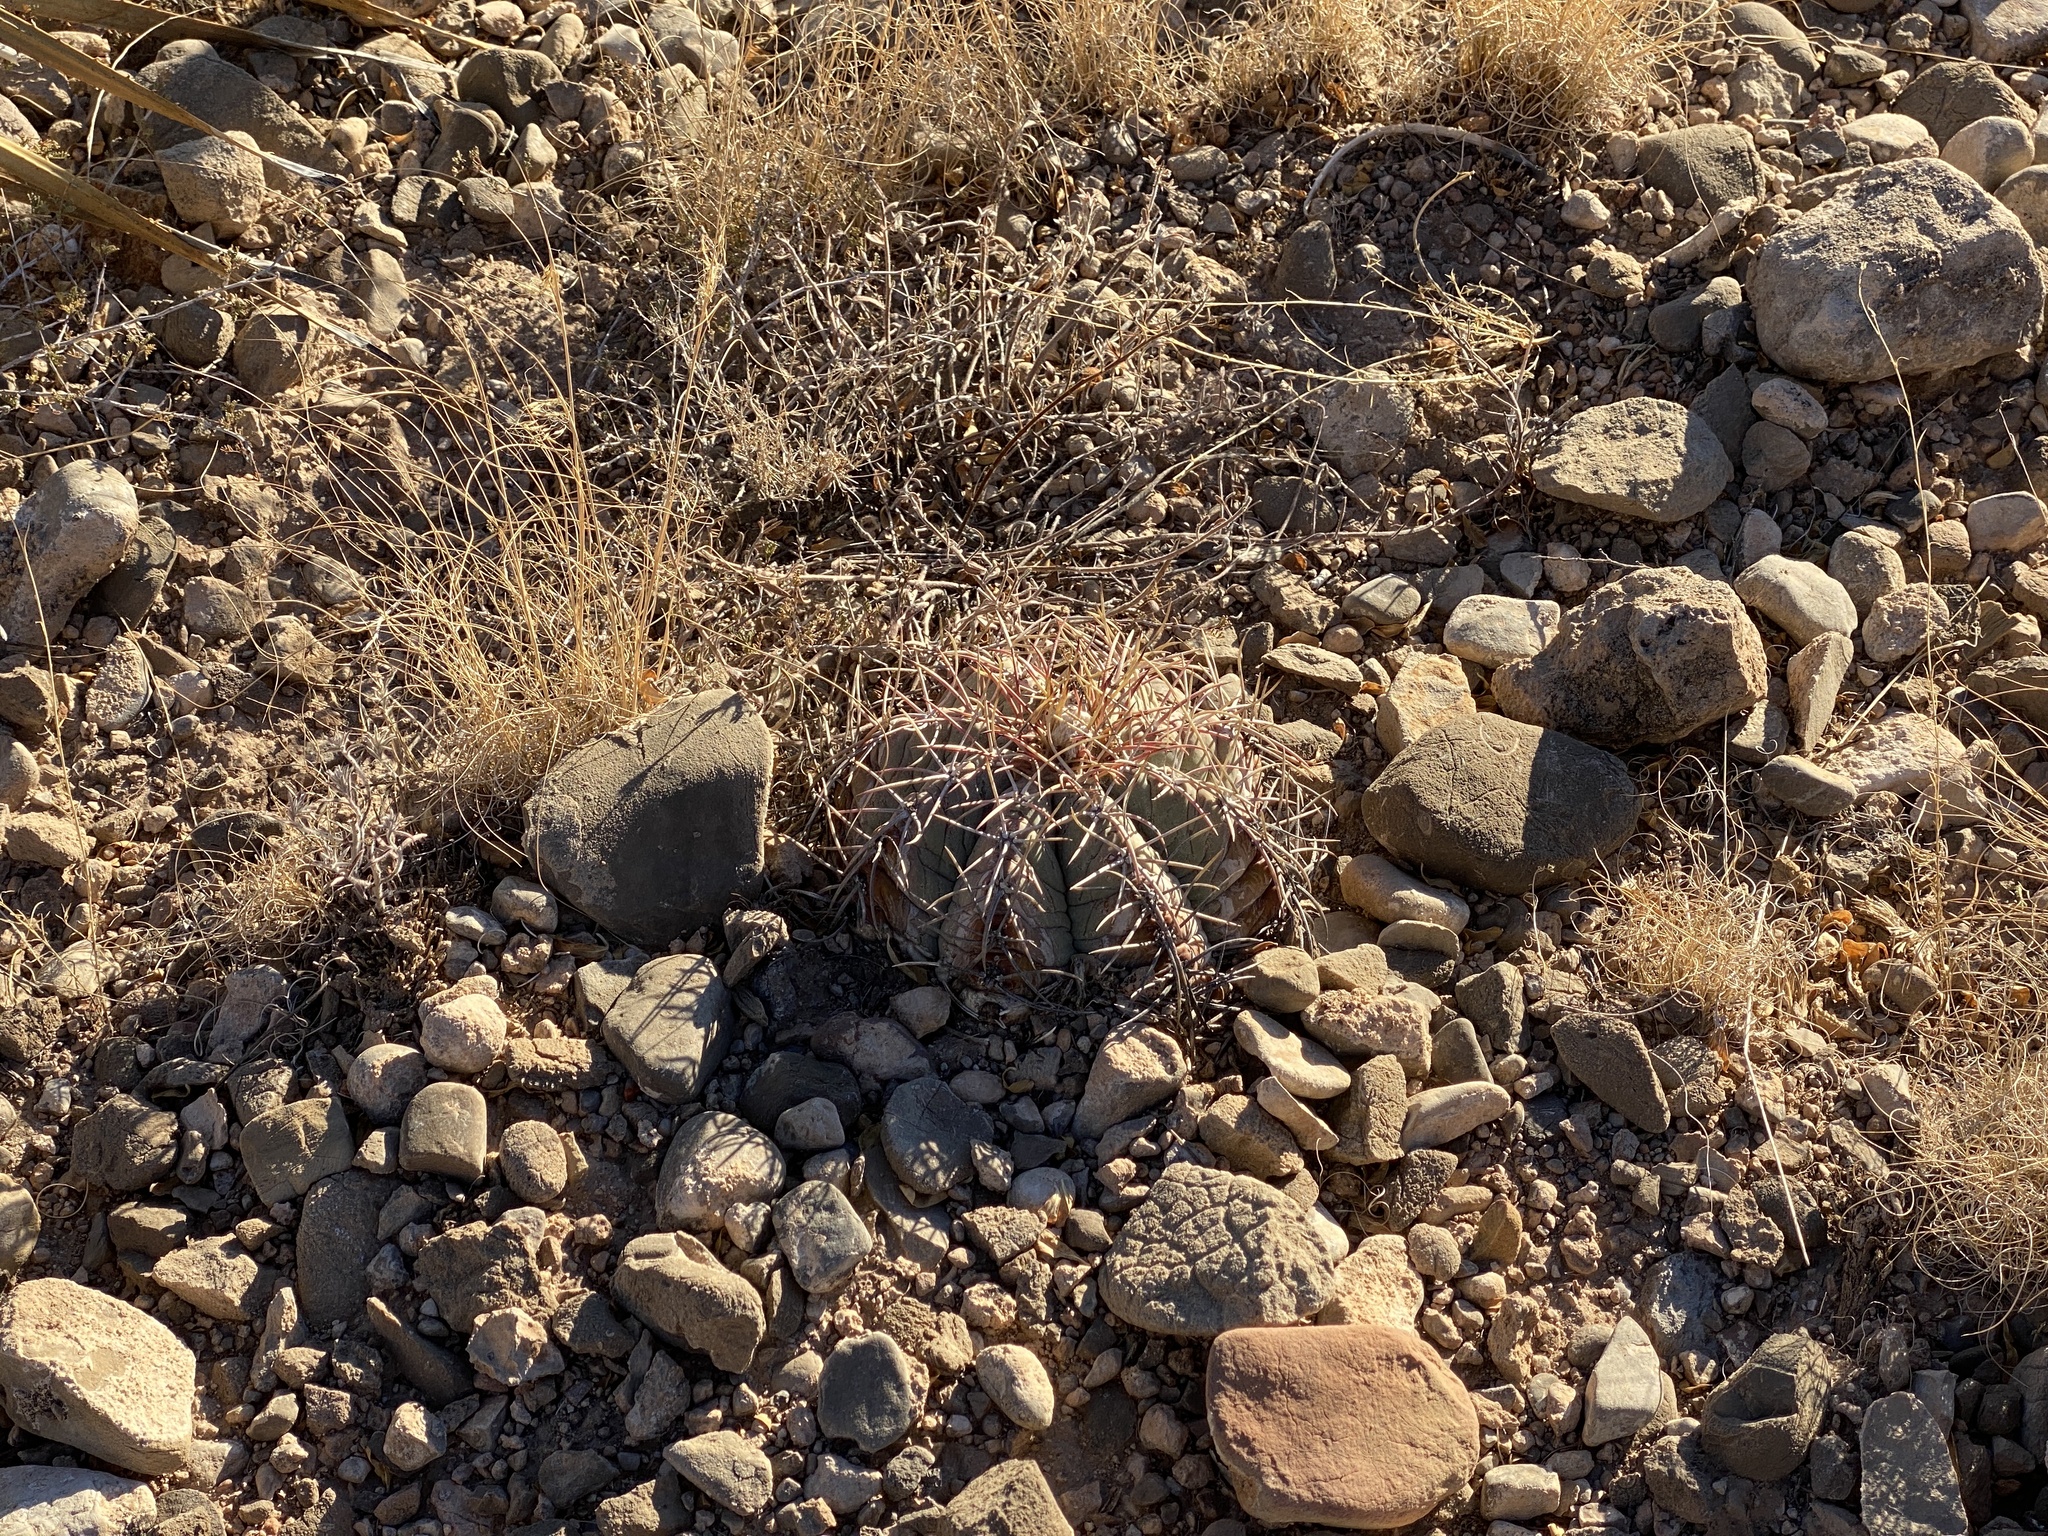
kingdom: Plantae
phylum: Tracheophyta
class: Magnoliopsida
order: Caryophyllales
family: Cactaceae
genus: Echinocactus
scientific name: Echinocactus horizonthalonius
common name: Devilshead
